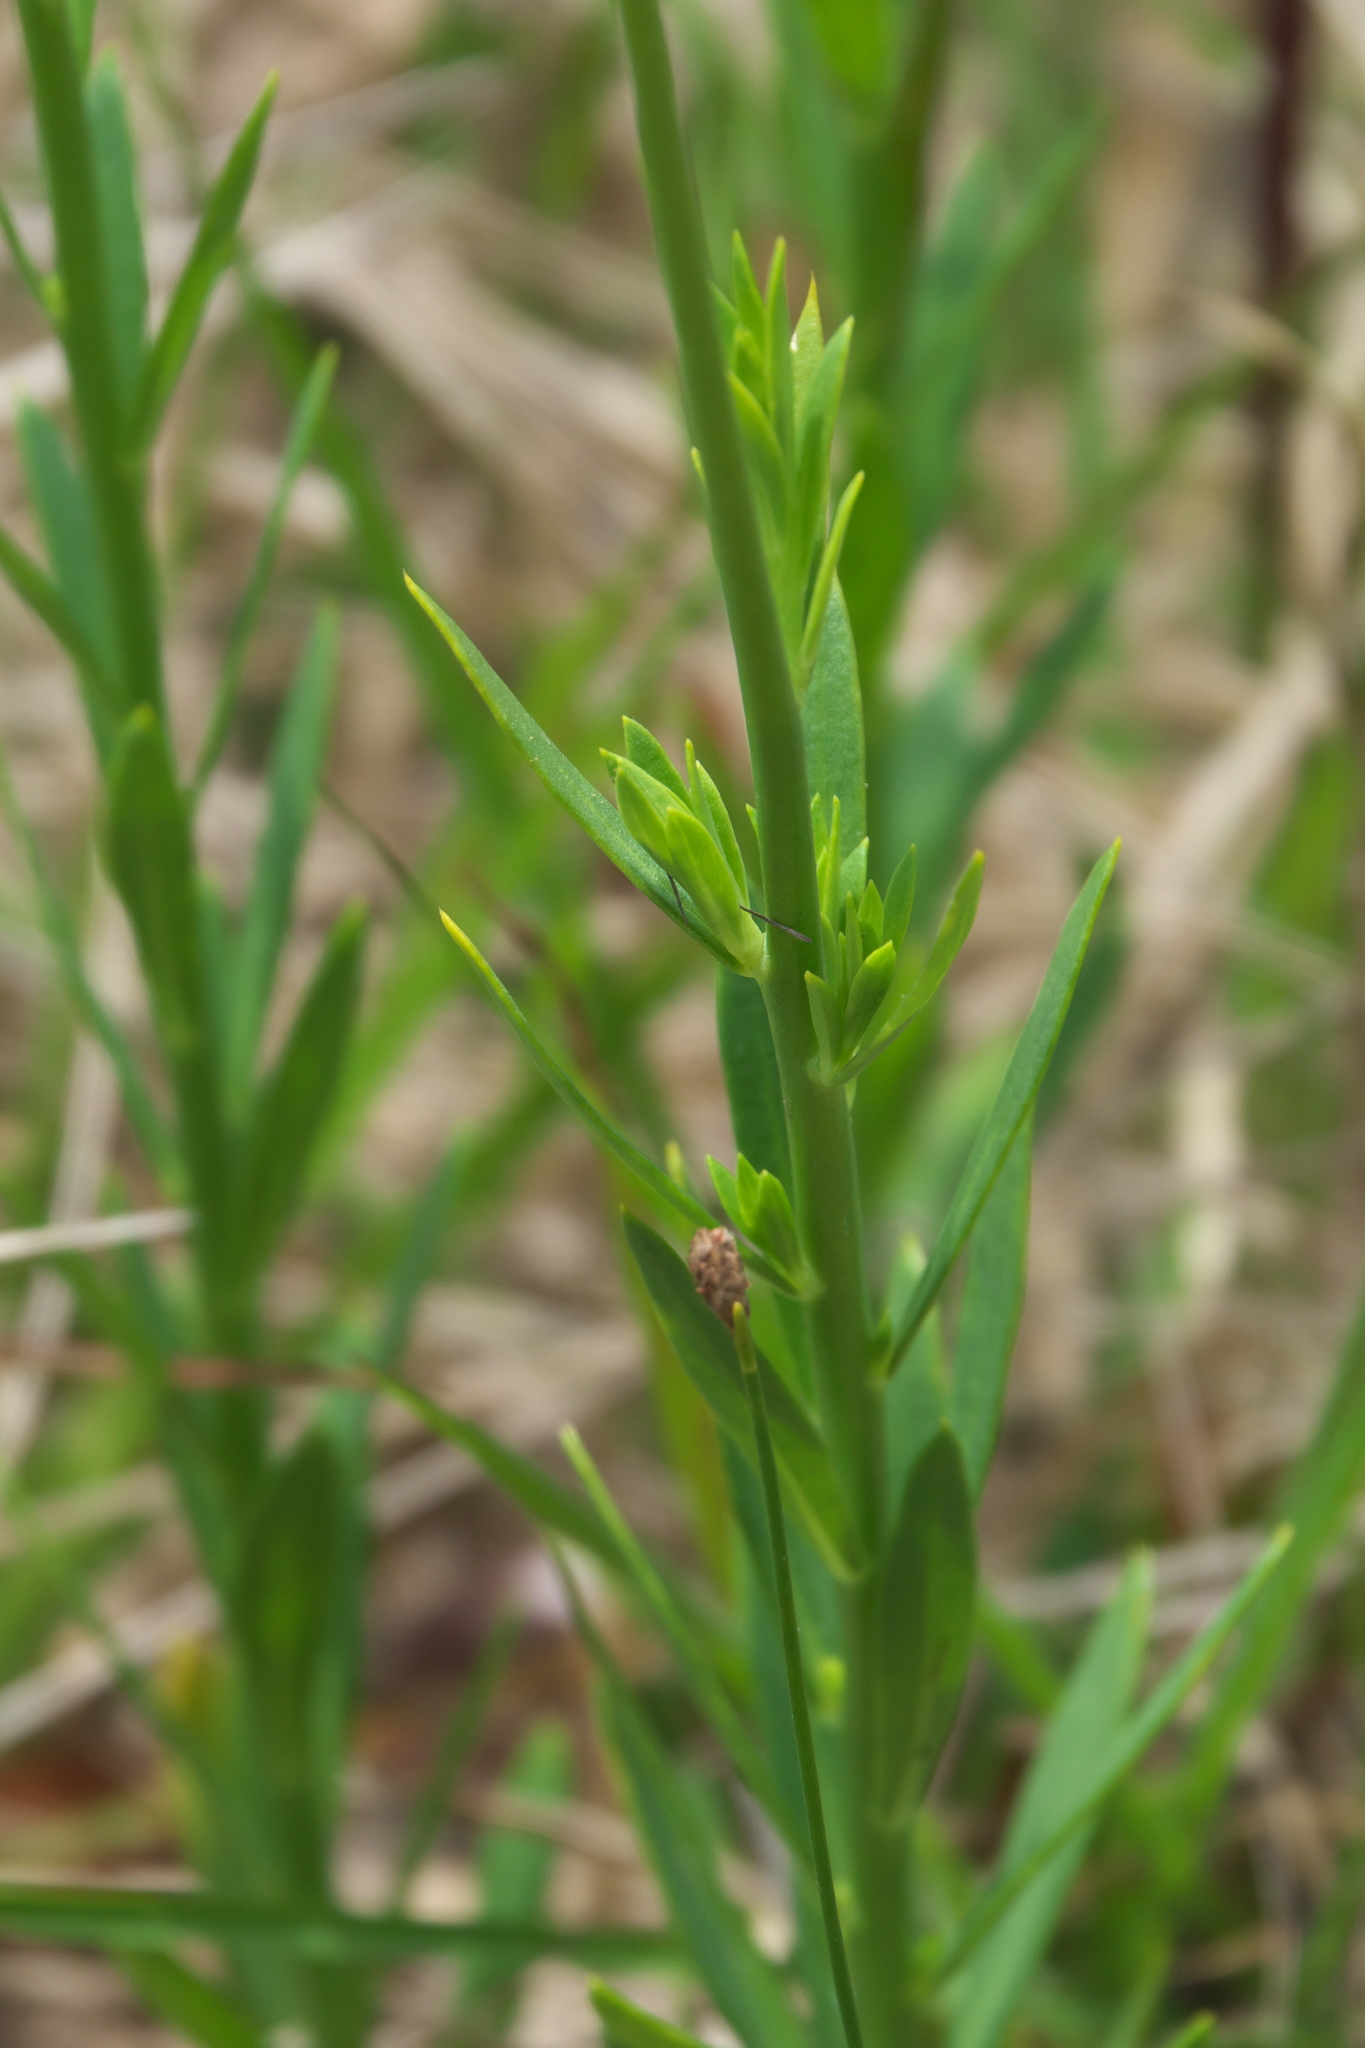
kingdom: Plantae
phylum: Tracheophyta
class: Magnoliopsida
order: Fabales
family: Polygalaceae
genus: Polygala
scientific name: Polygala rugelii
